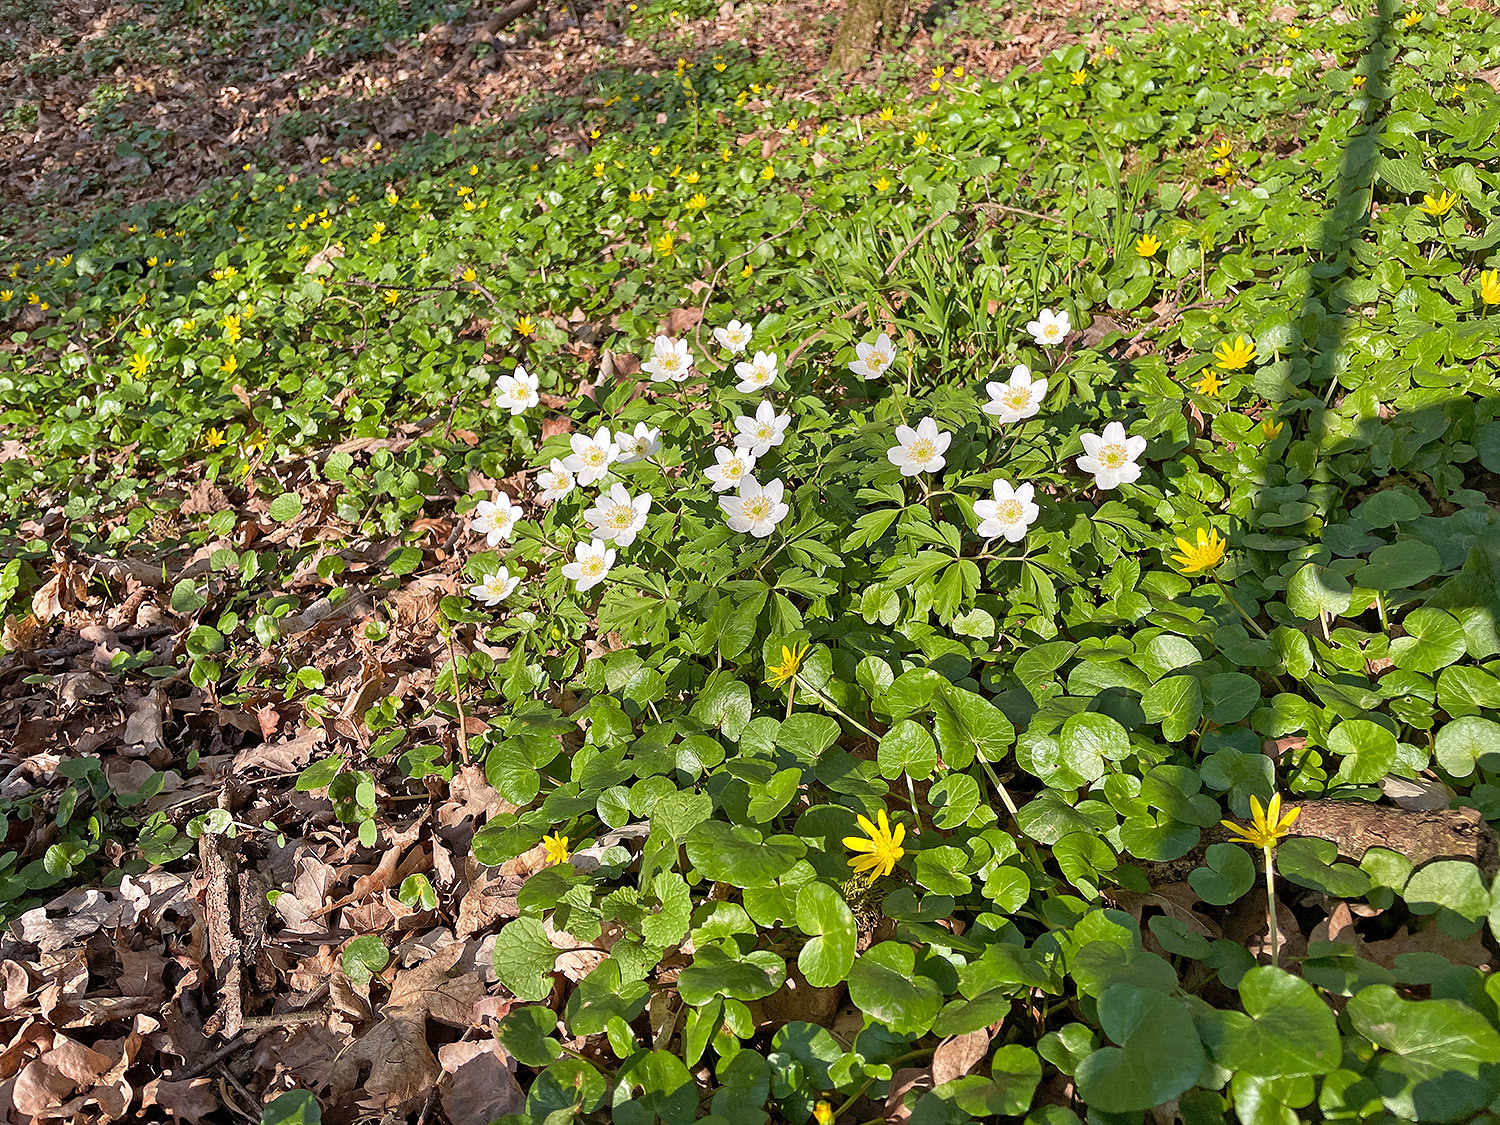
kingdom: Plantae
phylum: Tracheophyta
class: Magnoliopsida
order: Ranunculales
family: Ranunculaceae
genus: Anemone
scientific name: Anemone nemorosa
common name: Wood anemone
